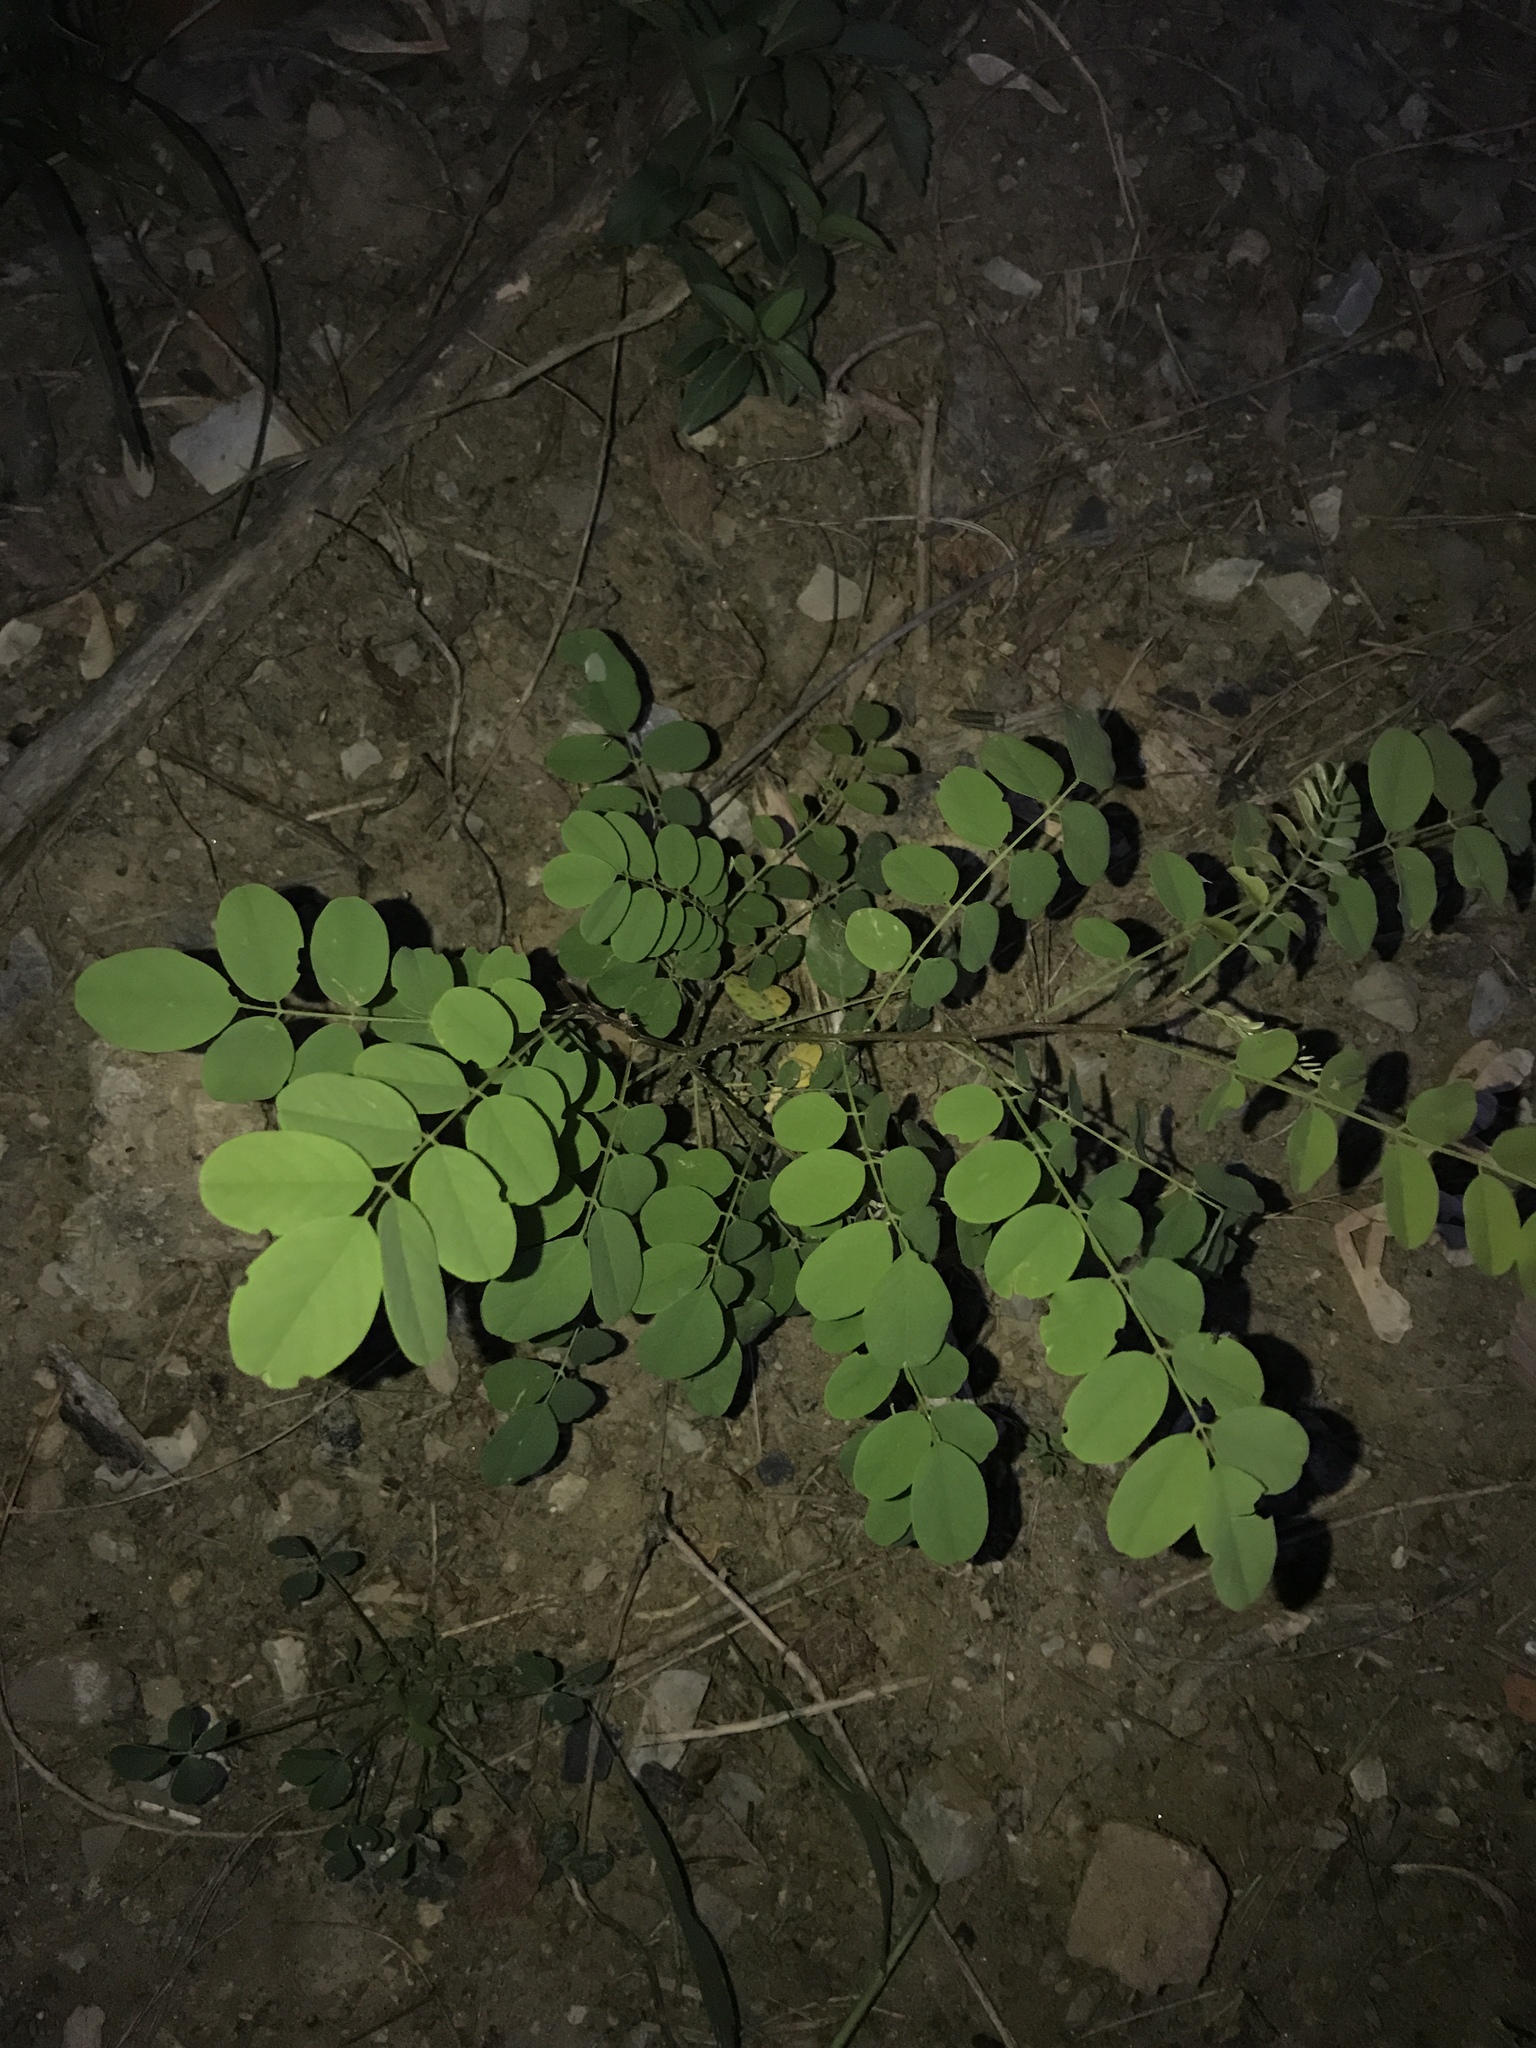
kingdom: Plantae
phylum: Tracheophyta
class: Magnoliopsida
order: Fabales
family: Fabaceae
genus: Robinia
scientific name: Robinia pseudoacacia
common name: Black locust
